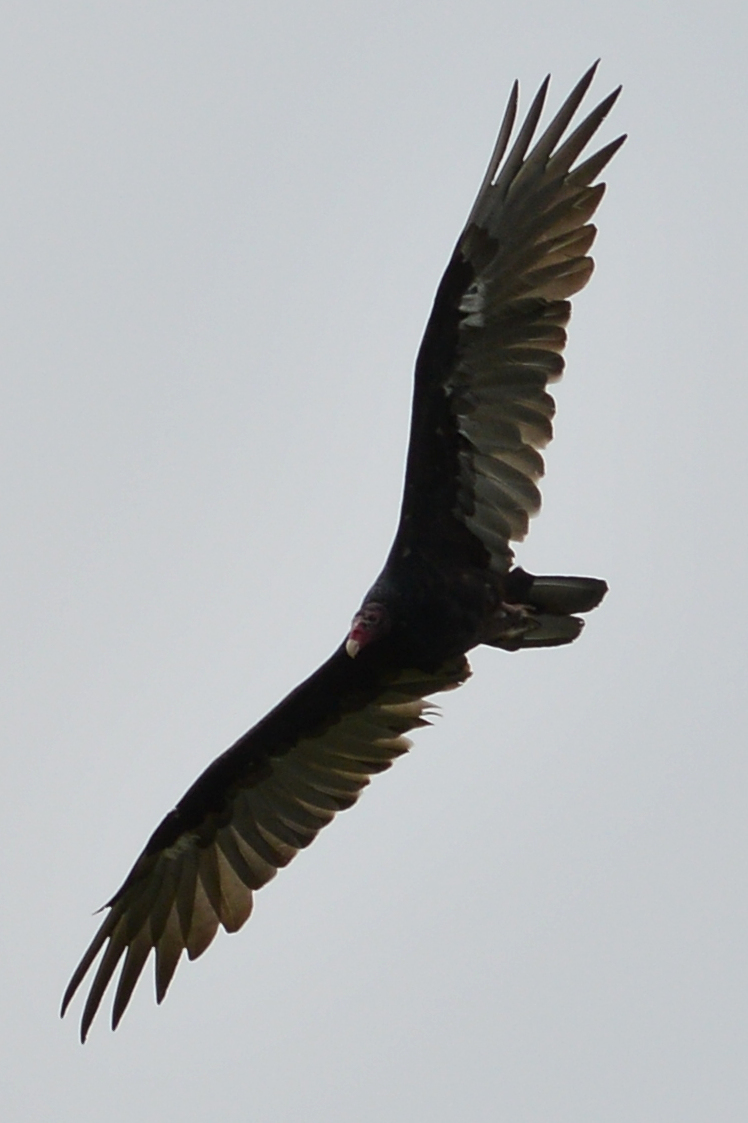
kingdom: Animalia
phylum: Chordata
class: Aves
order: Accipitriformes
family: Cathartidae
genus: Cathartes
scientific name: Cathartes aura
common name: Turkey vulture
